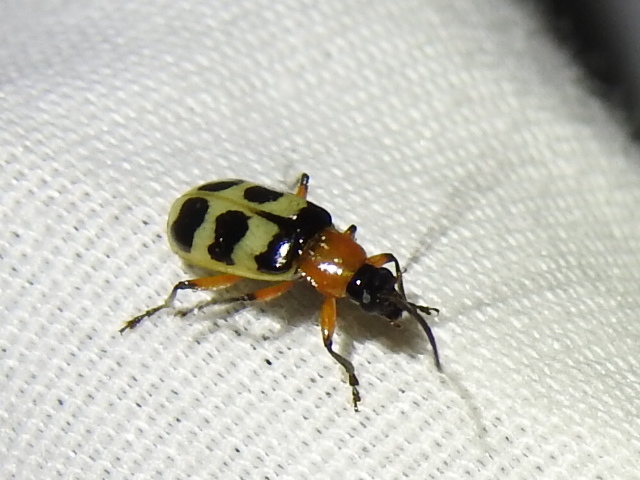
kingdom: Animalia
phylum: Arthropoda
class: Insecta
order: Coleoptera
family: Chrysomelidae
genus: Paranapiacaba
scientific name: Paranapiacaba tricincta
